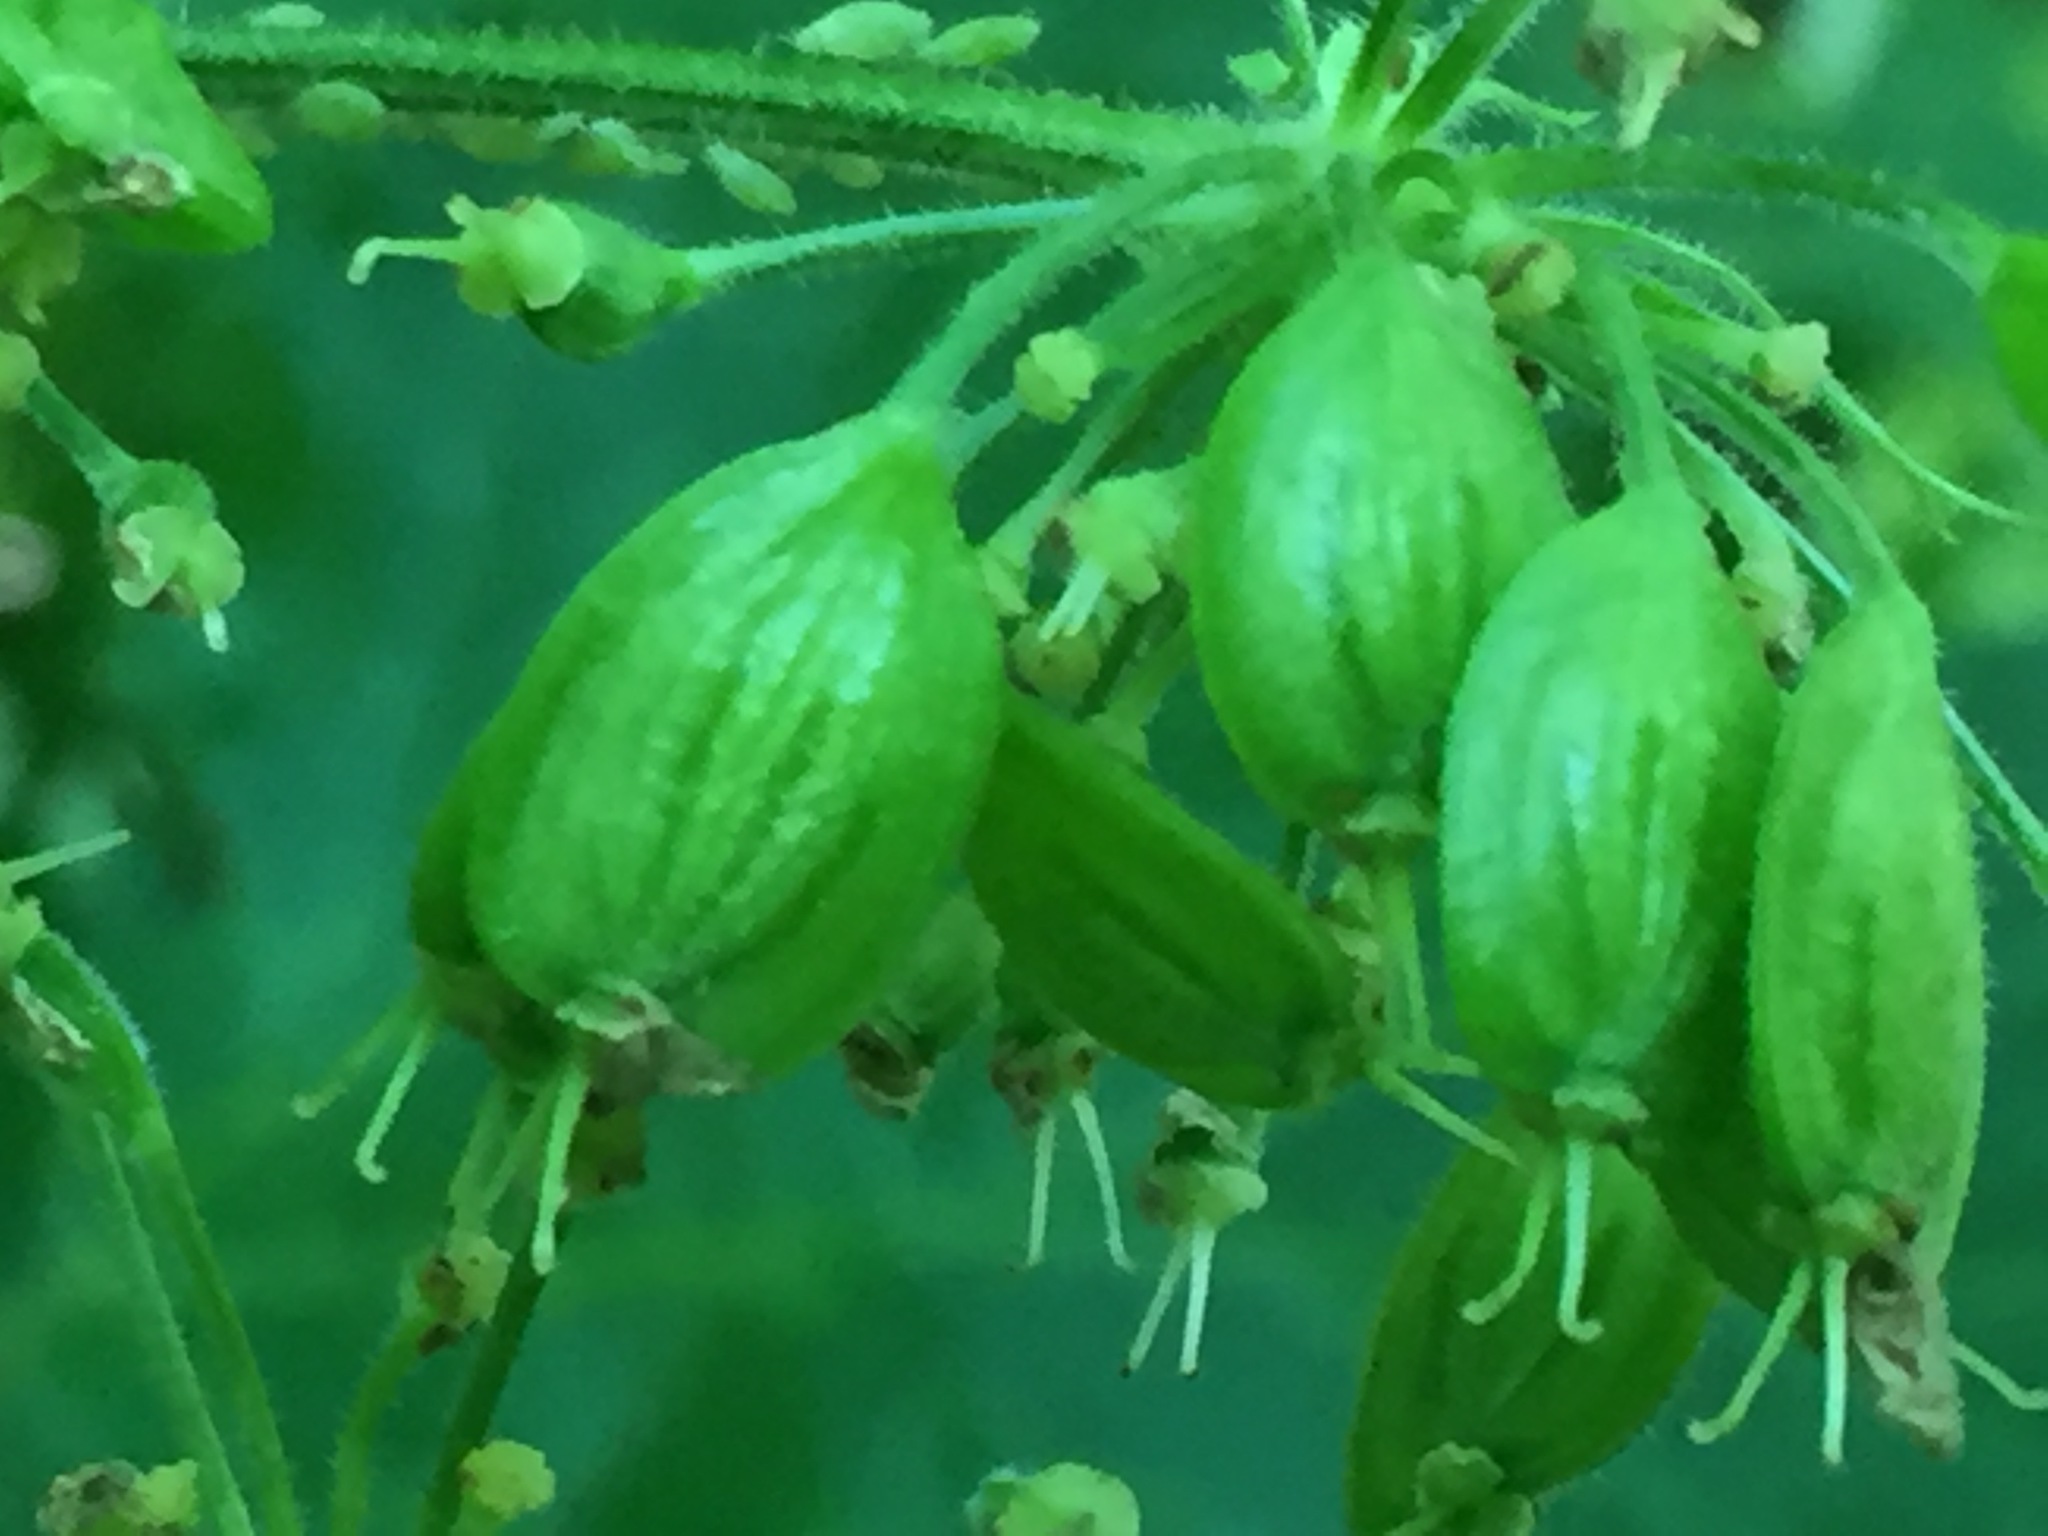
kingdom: Plantae
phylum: Tracheophyta
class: Magnoliopsida
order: Apiales
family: Apiaceae
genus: Heracleum
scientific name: Heracleum maximum
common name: American cow parsnip
